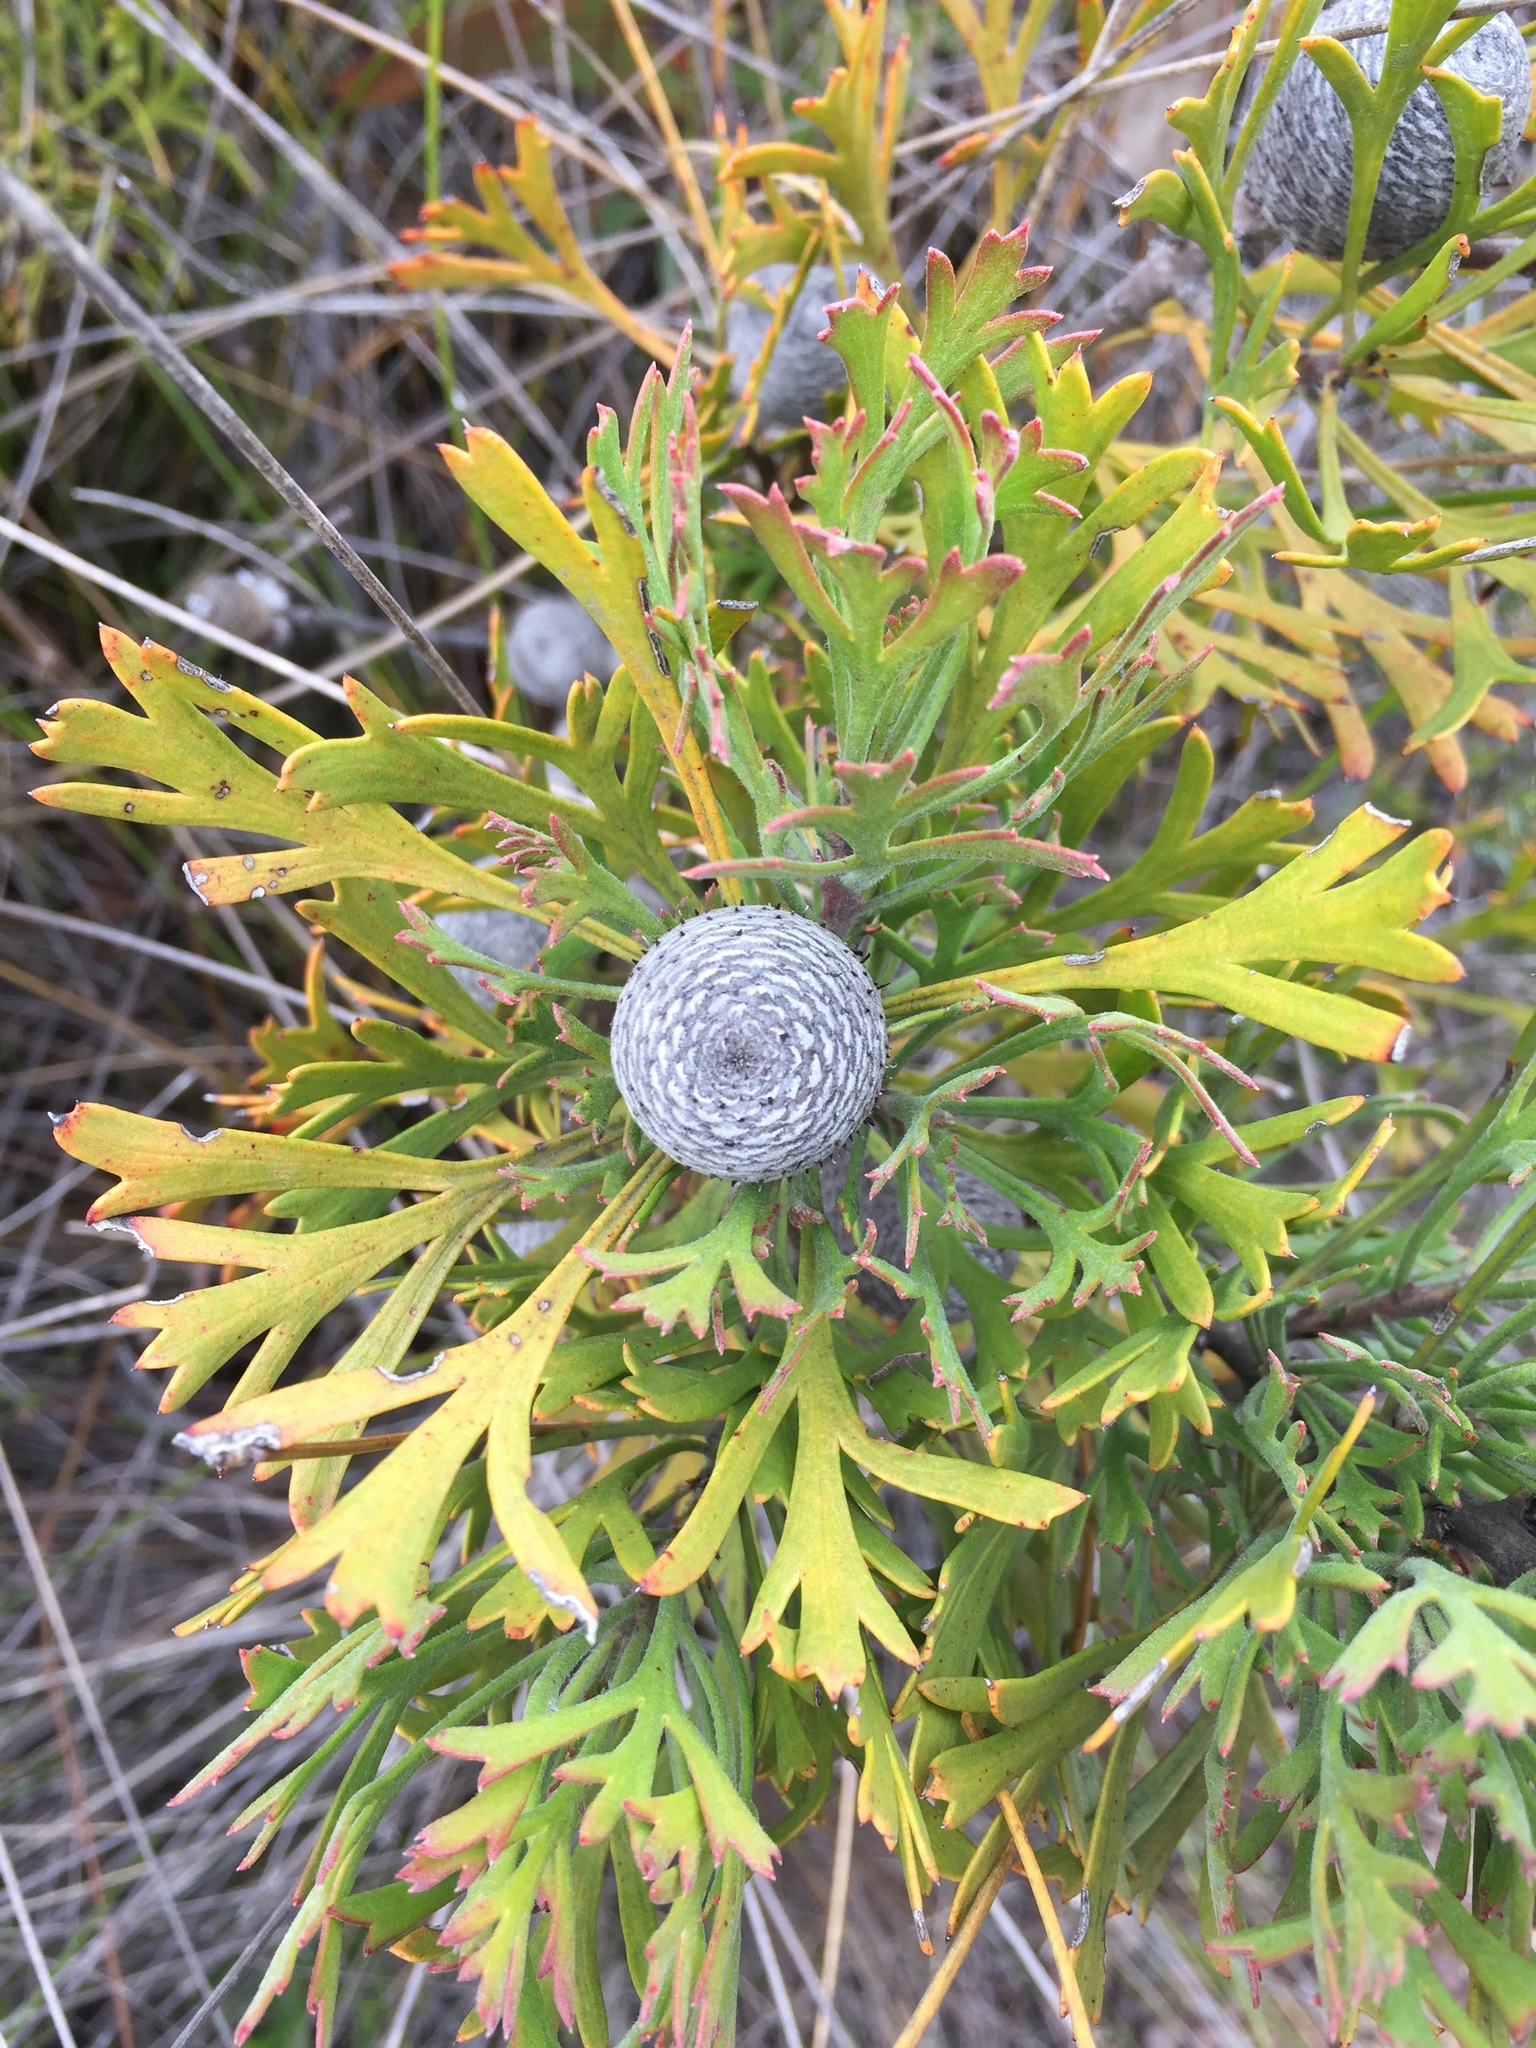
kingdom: Plantae
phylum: Tracheophyta
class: Magnoliopsida
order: Proteales
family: Proteaceae
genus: Isopogon
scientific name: Isopogon anemonifolius
